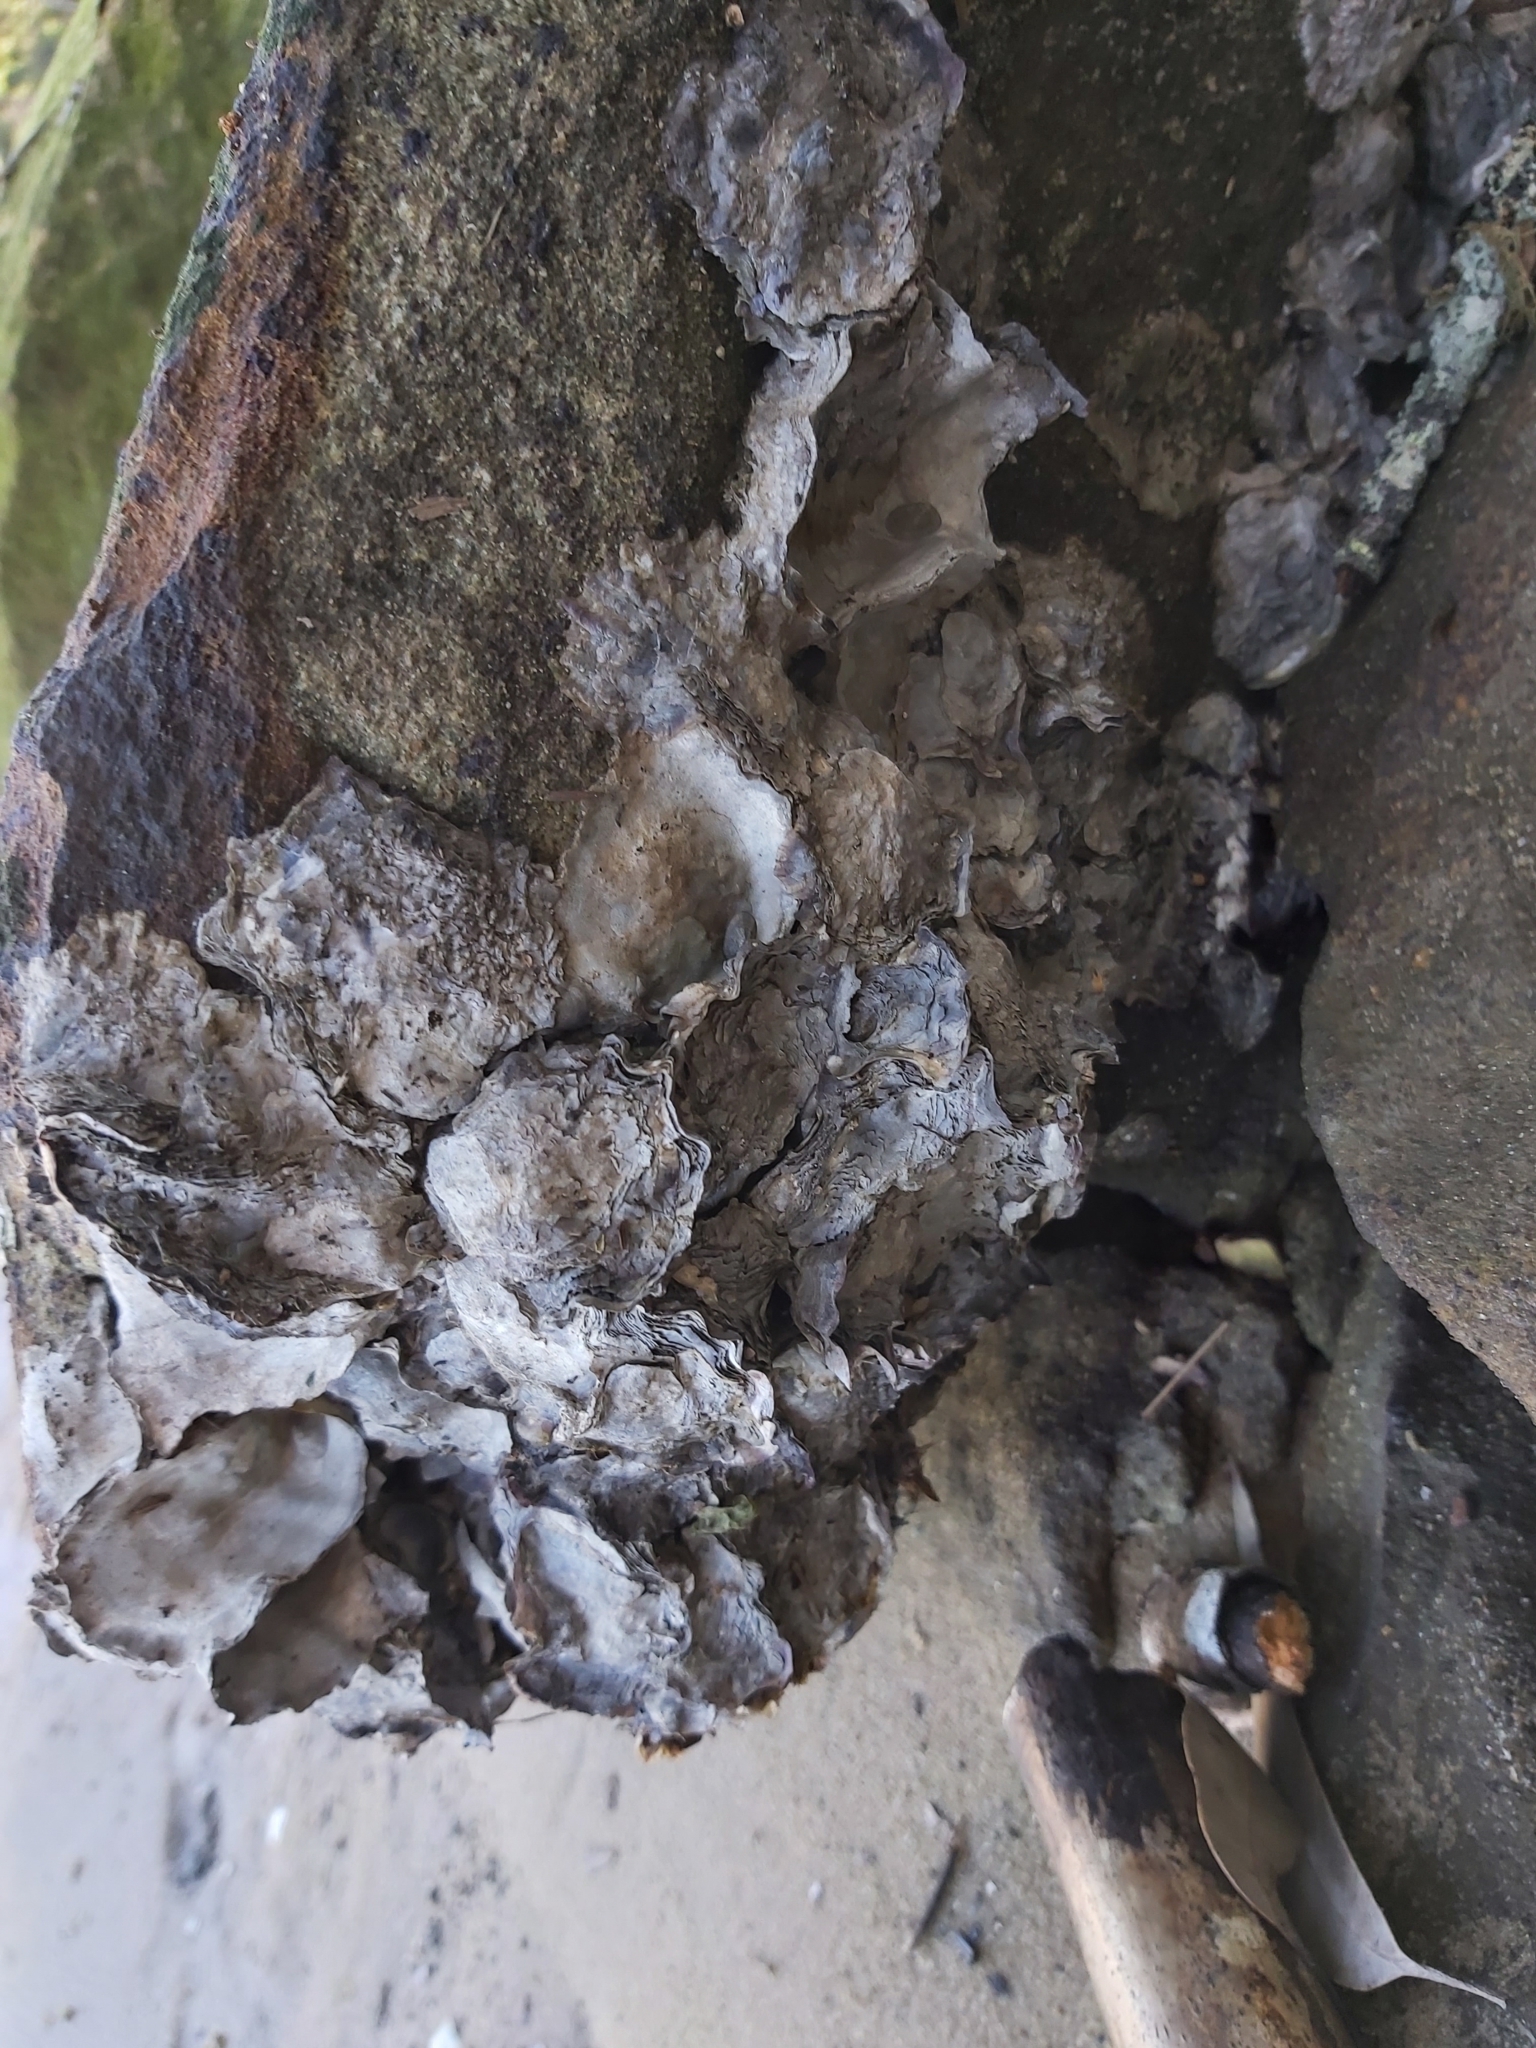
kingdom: Animalia
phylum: Mollusca
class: Bivalvia
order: Ostreida
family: Ostreidae
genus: Saccostrea
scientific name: Saccostrea glomerata
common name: Sydney cupped oyster
